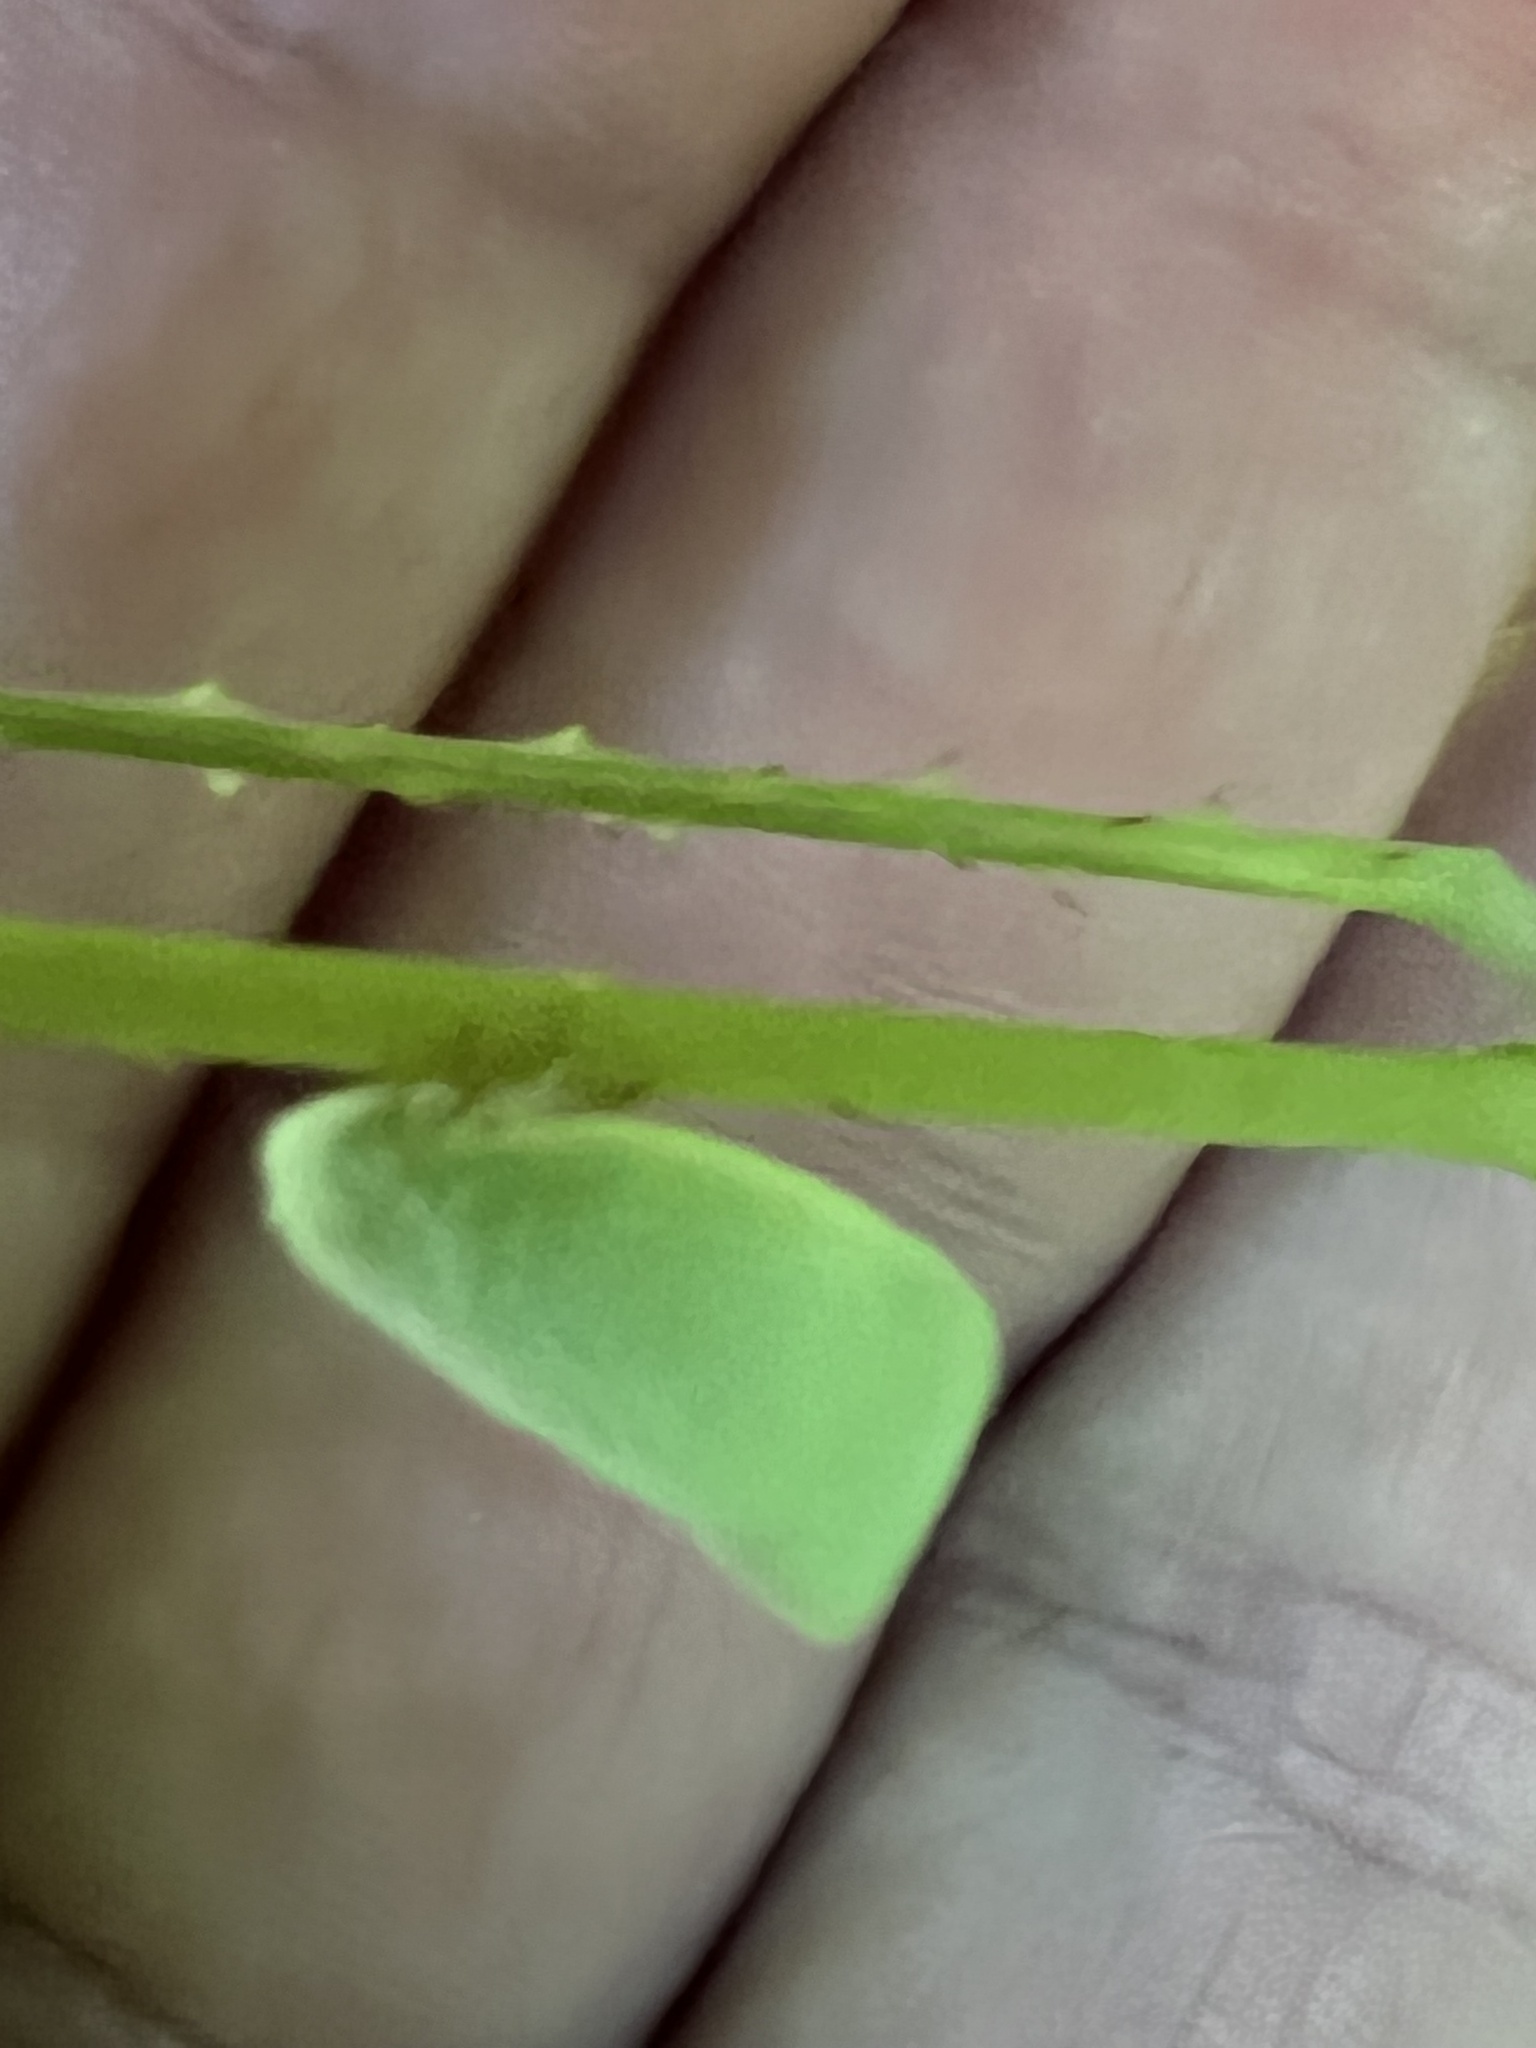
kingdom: Animalia
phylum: Arthropoda
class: Insecta
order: Hemiptera
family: Flatidae
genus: Flatormenis
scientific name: Flatormenis proxima
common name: Northern flatid planthopper
